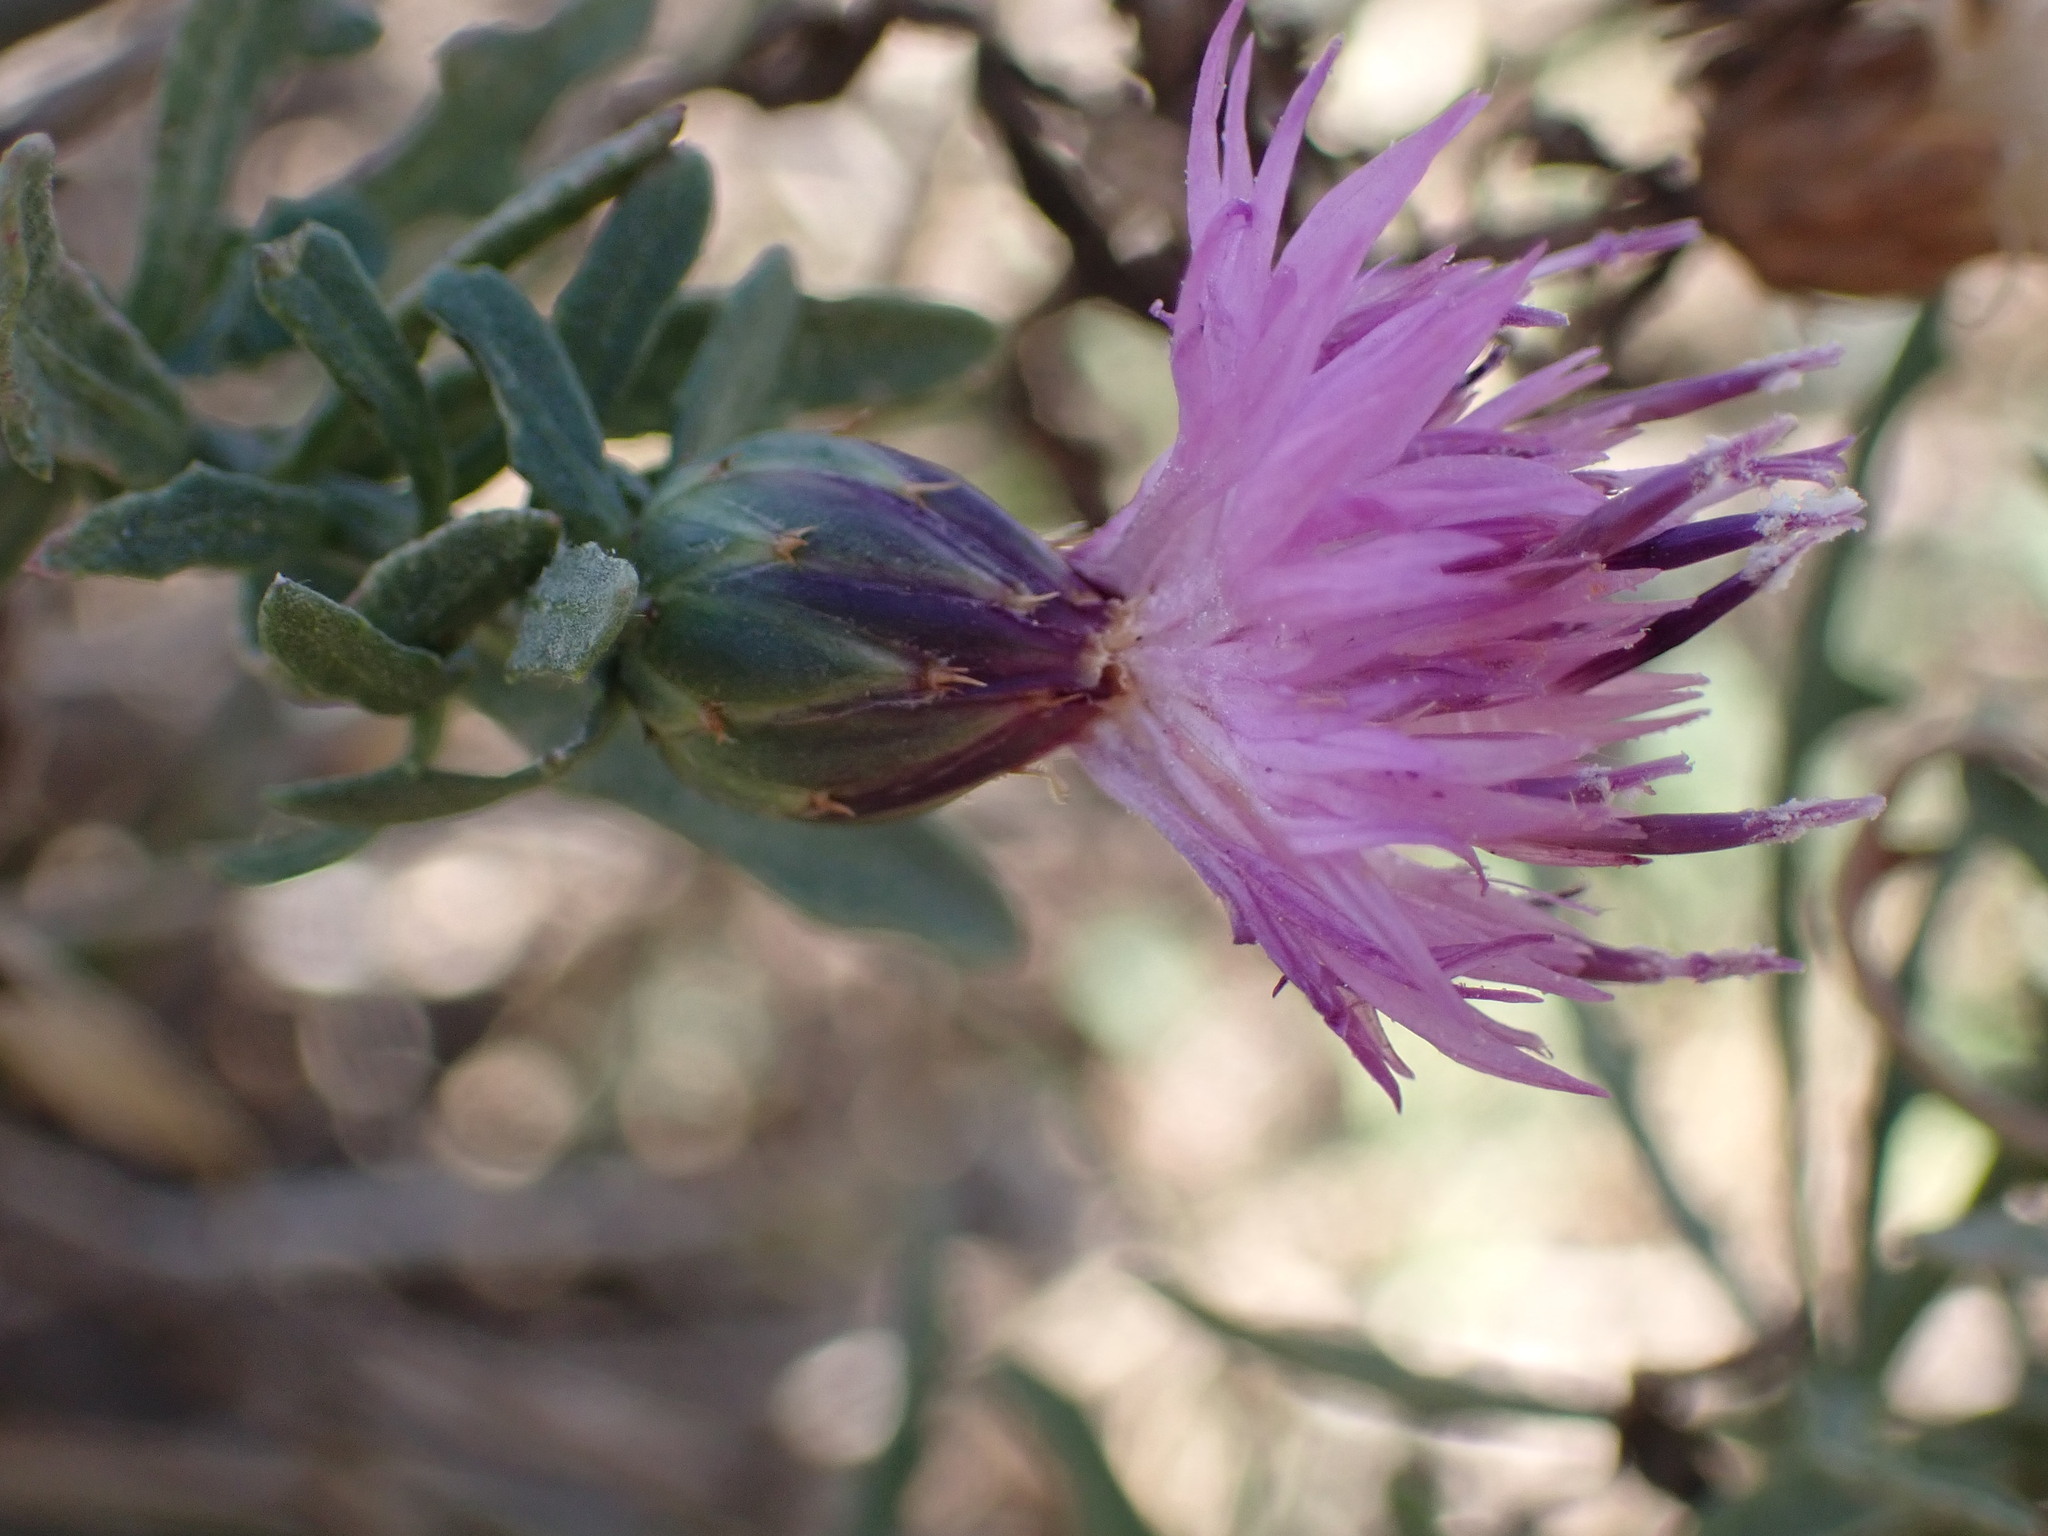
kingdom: Plantae
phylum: Tracheophyta
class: Magnoliopsida
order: Asterales
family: Asteraceae
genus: Centaurea
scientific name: Centaurea aspera
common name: Rough star-thistle
